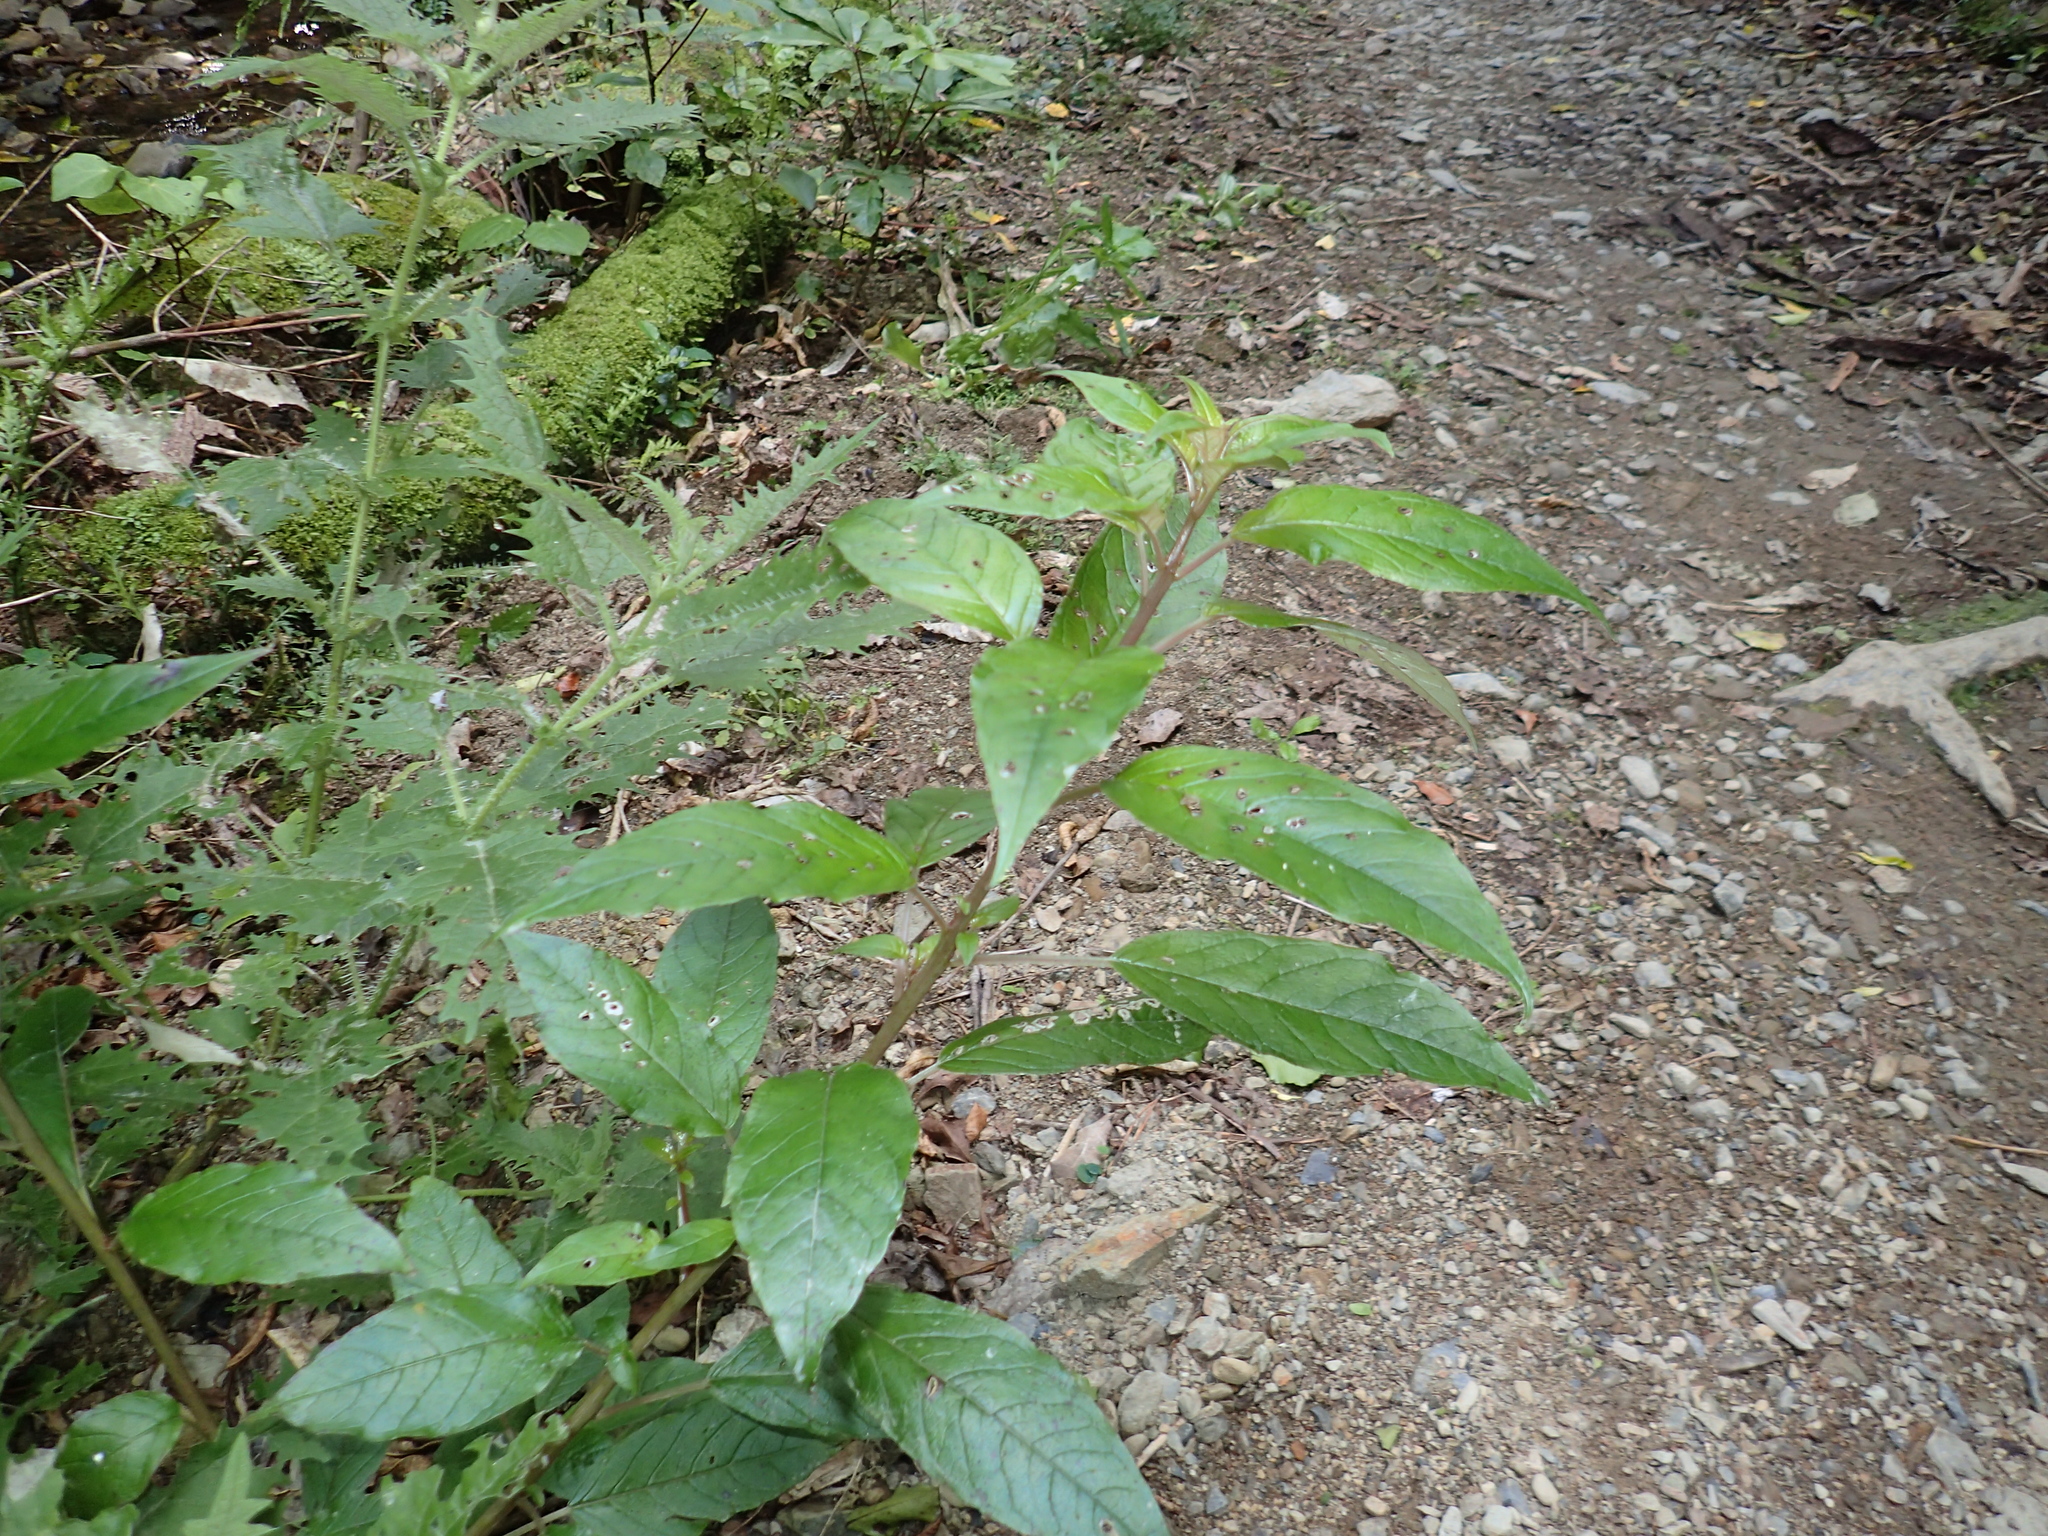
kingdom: Plantae
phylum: Tracheophyta
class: Magnoliopsida
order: Myrtales
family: Onagraceae
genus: Fuchsia
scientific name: Fuchsia excorticata
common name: Tree fuchsia
